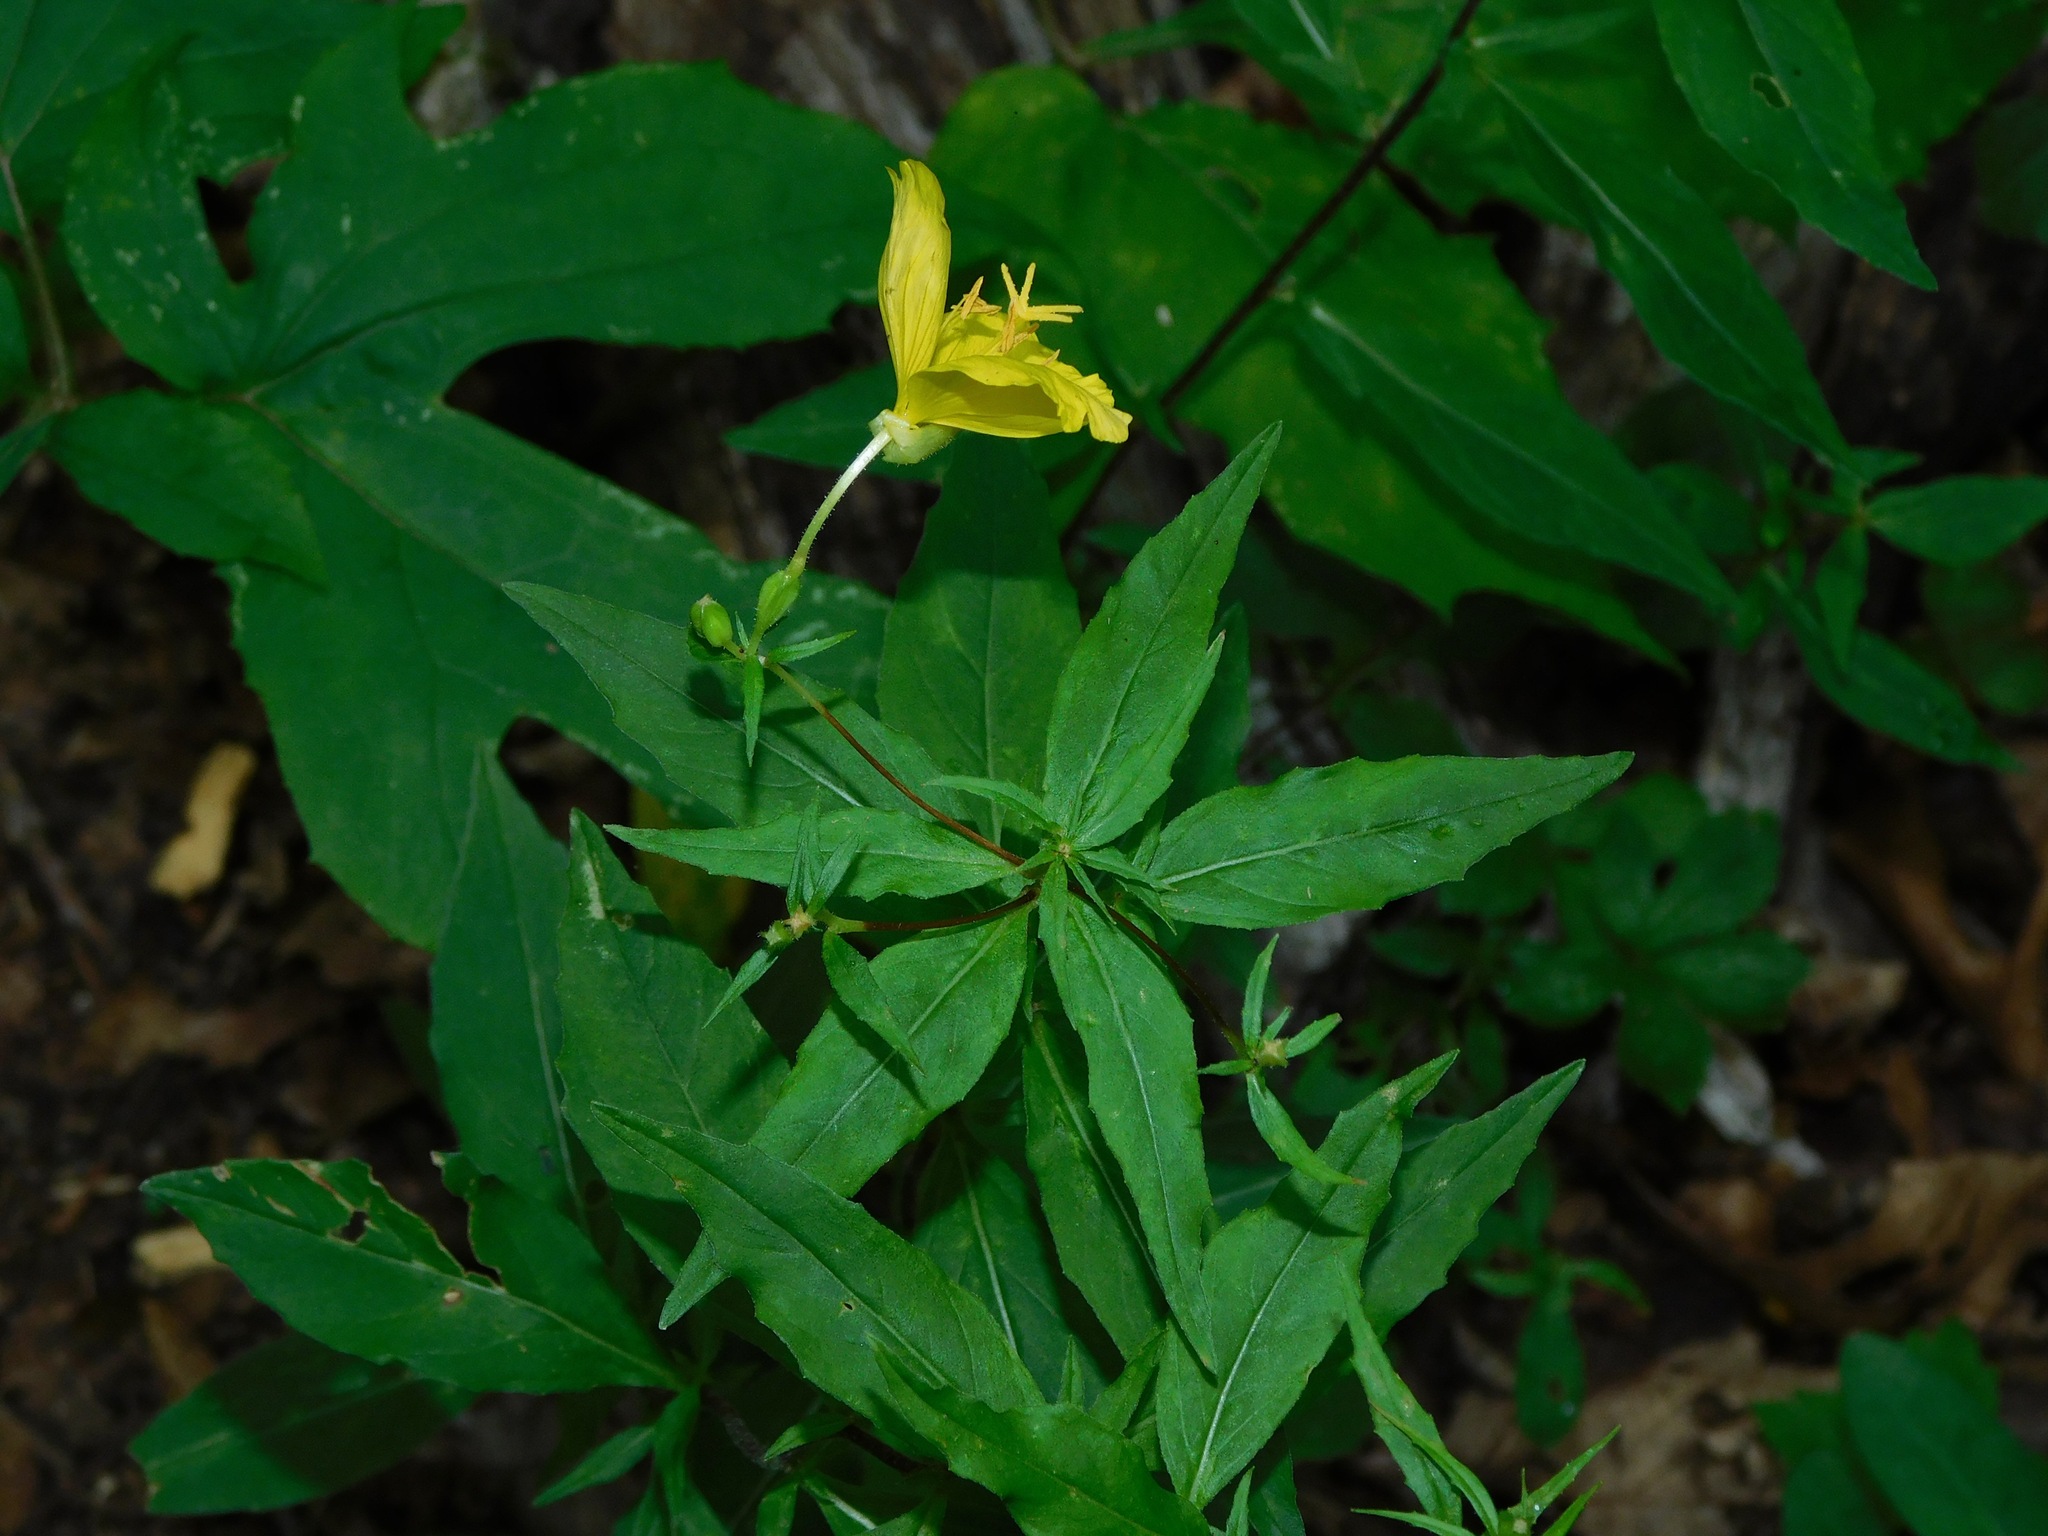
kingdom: Plantae
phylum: Tracheophyta
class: Magnoliopsida
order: Myrtales
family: Onagraceae
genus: Oenothera
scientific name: Oenothera fruticosa
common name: Southern sundrops
